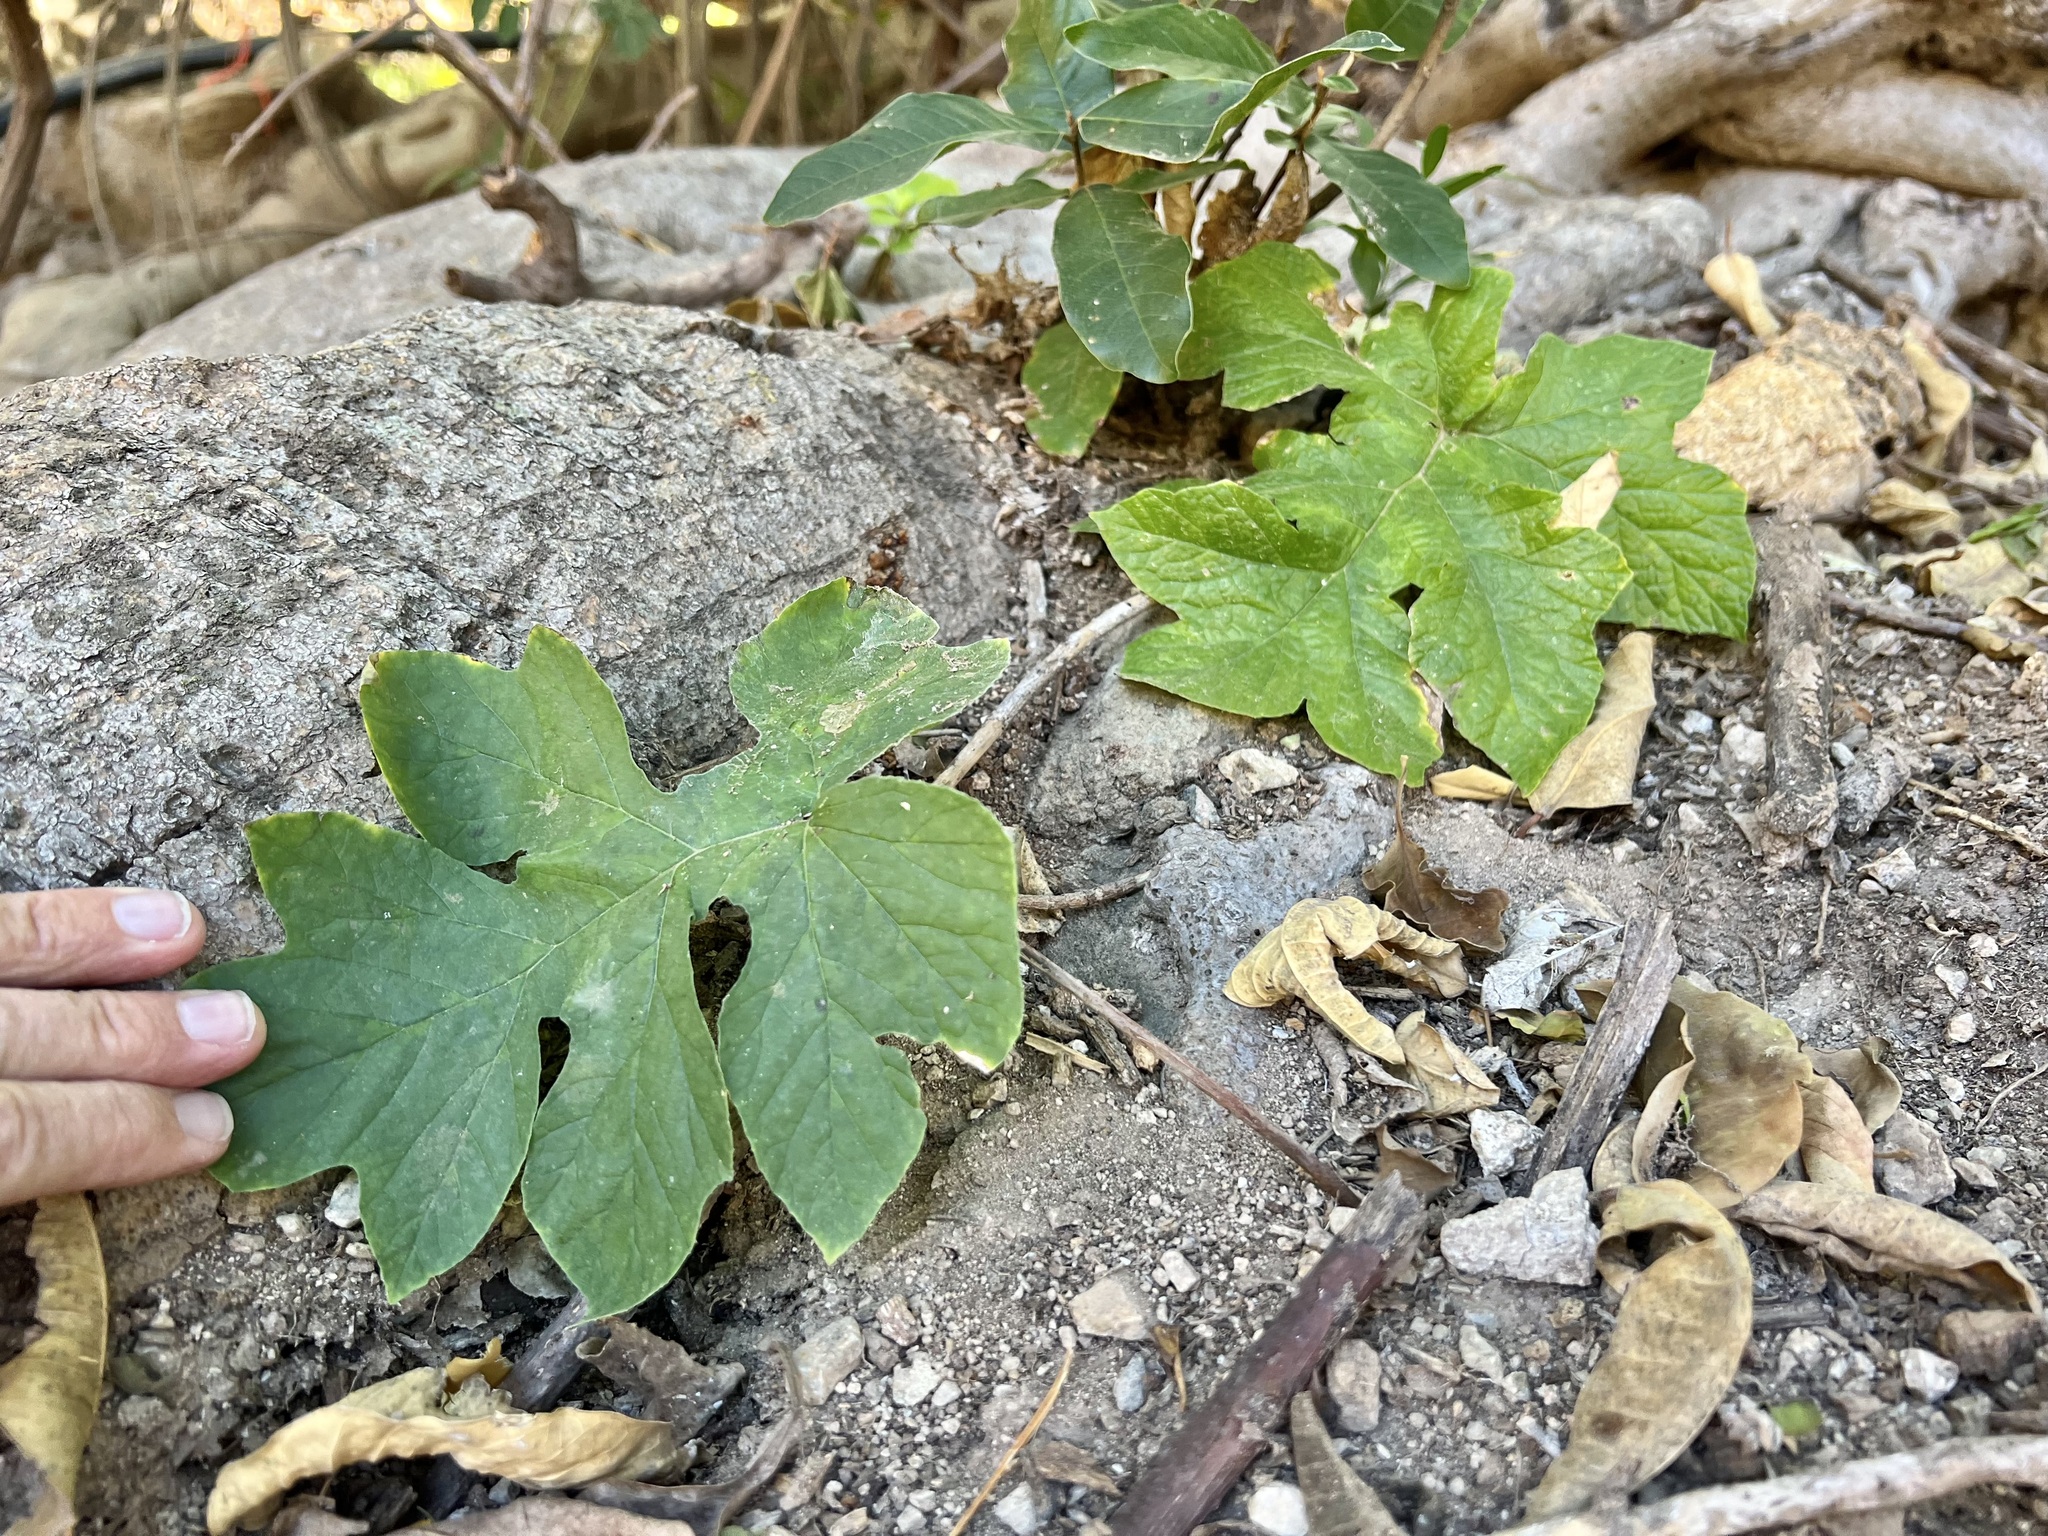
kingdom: Plantae
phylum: Tracheophyta
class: Magnoliopsida
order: Rosales
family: Moraceae
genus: Dorstenia
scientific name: Dorstenia drakena
